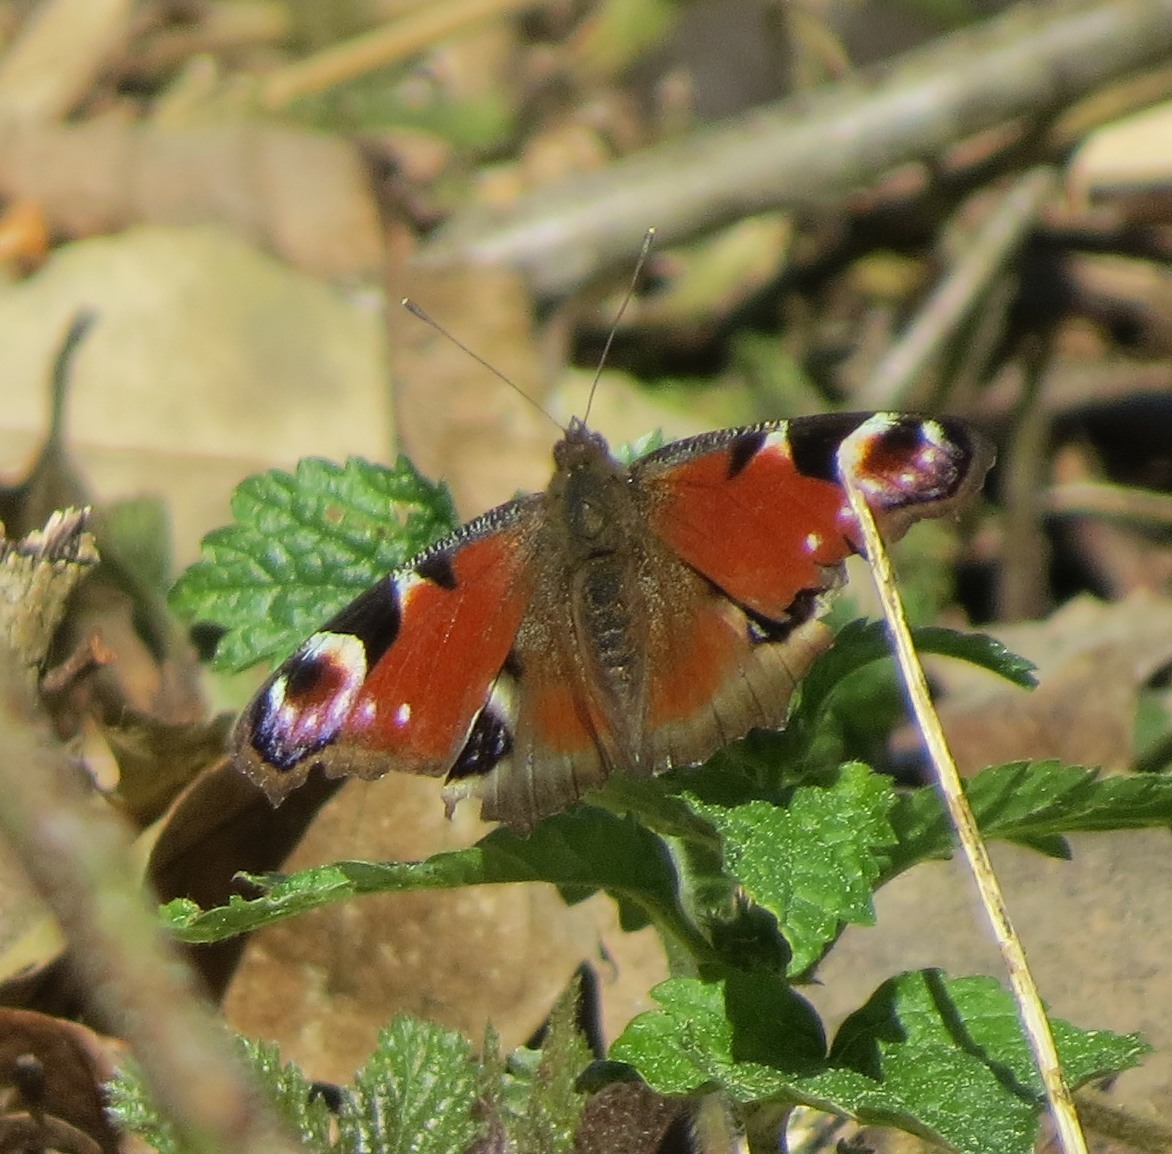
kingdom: Animalia
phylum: Arthropoda
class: Insecta
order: Lepidoptera
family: Nymphalidae
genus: Aglais
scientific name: Aglais io
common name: Peacock
